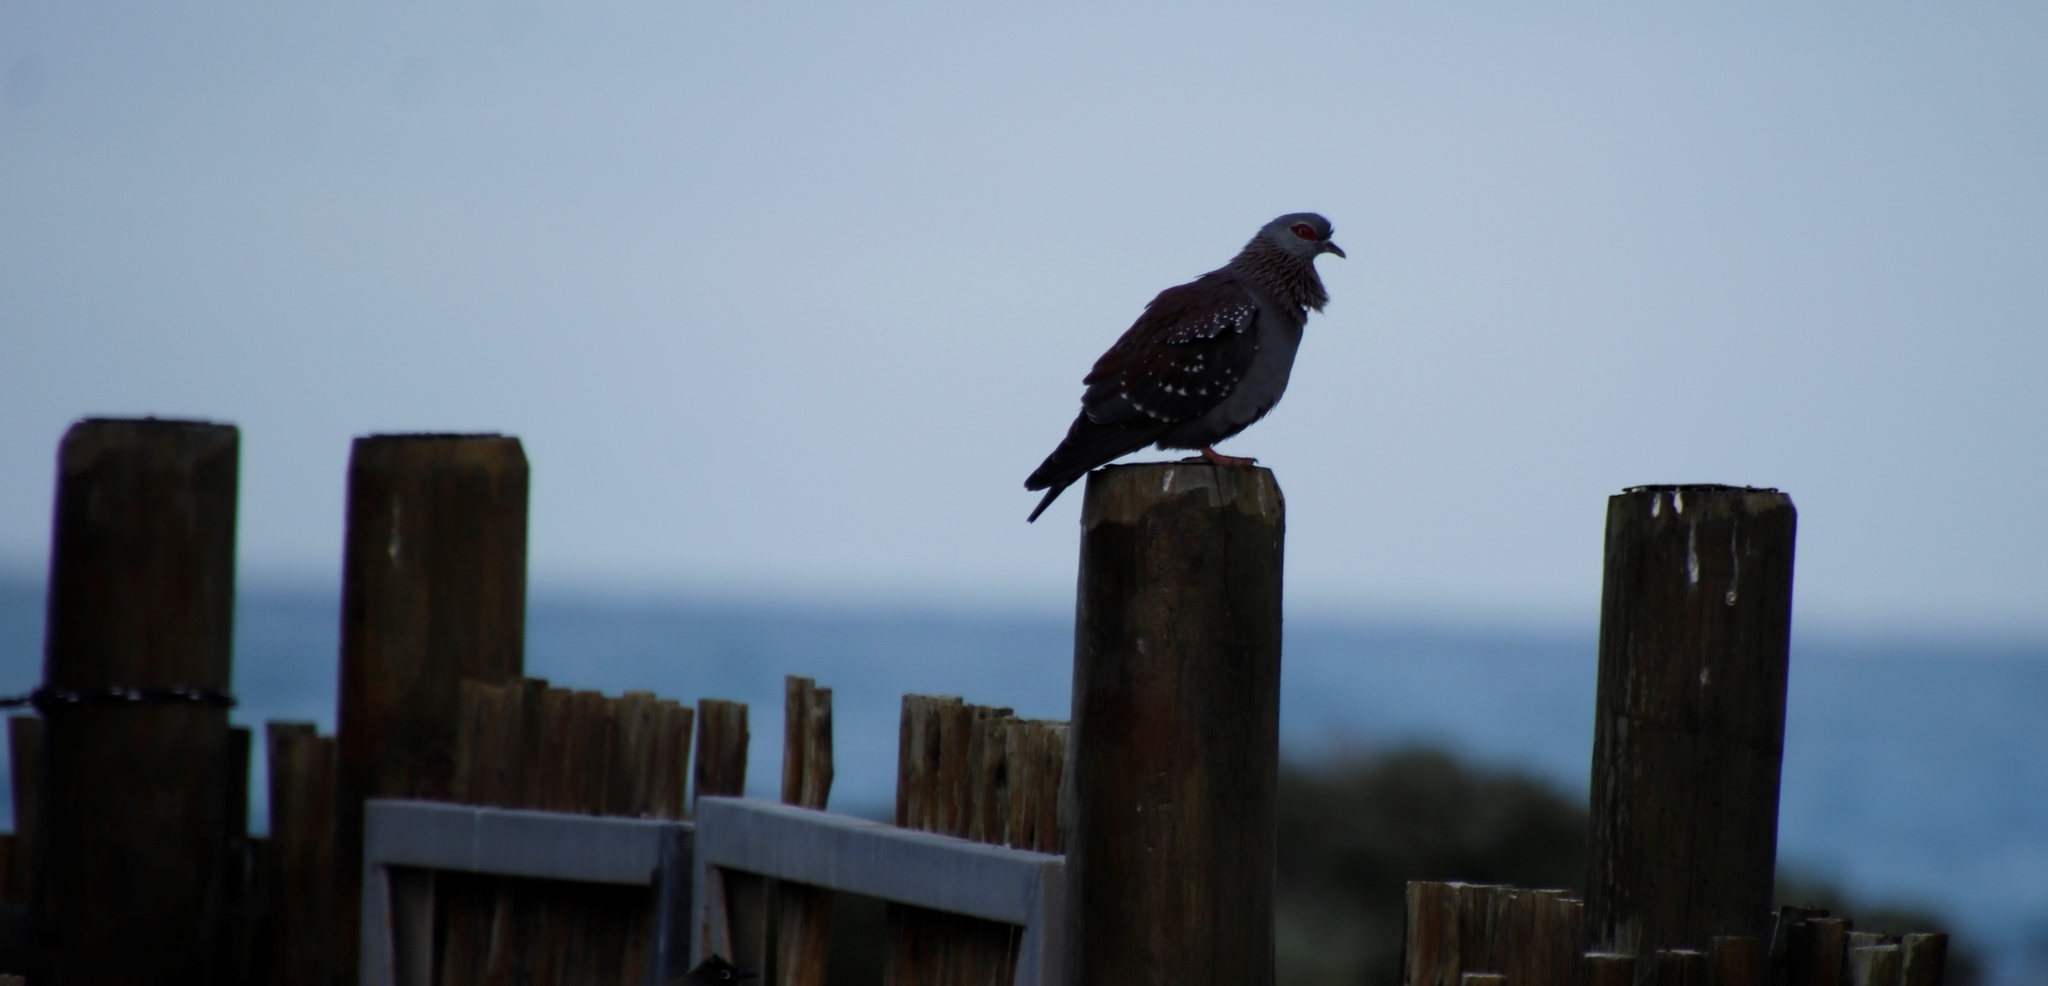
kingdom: Animalia
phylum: Chordata
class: Aves
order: Columbiformes
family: Columbidae
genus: Columba
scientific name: Columba guinea
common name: Speckled pigeon
